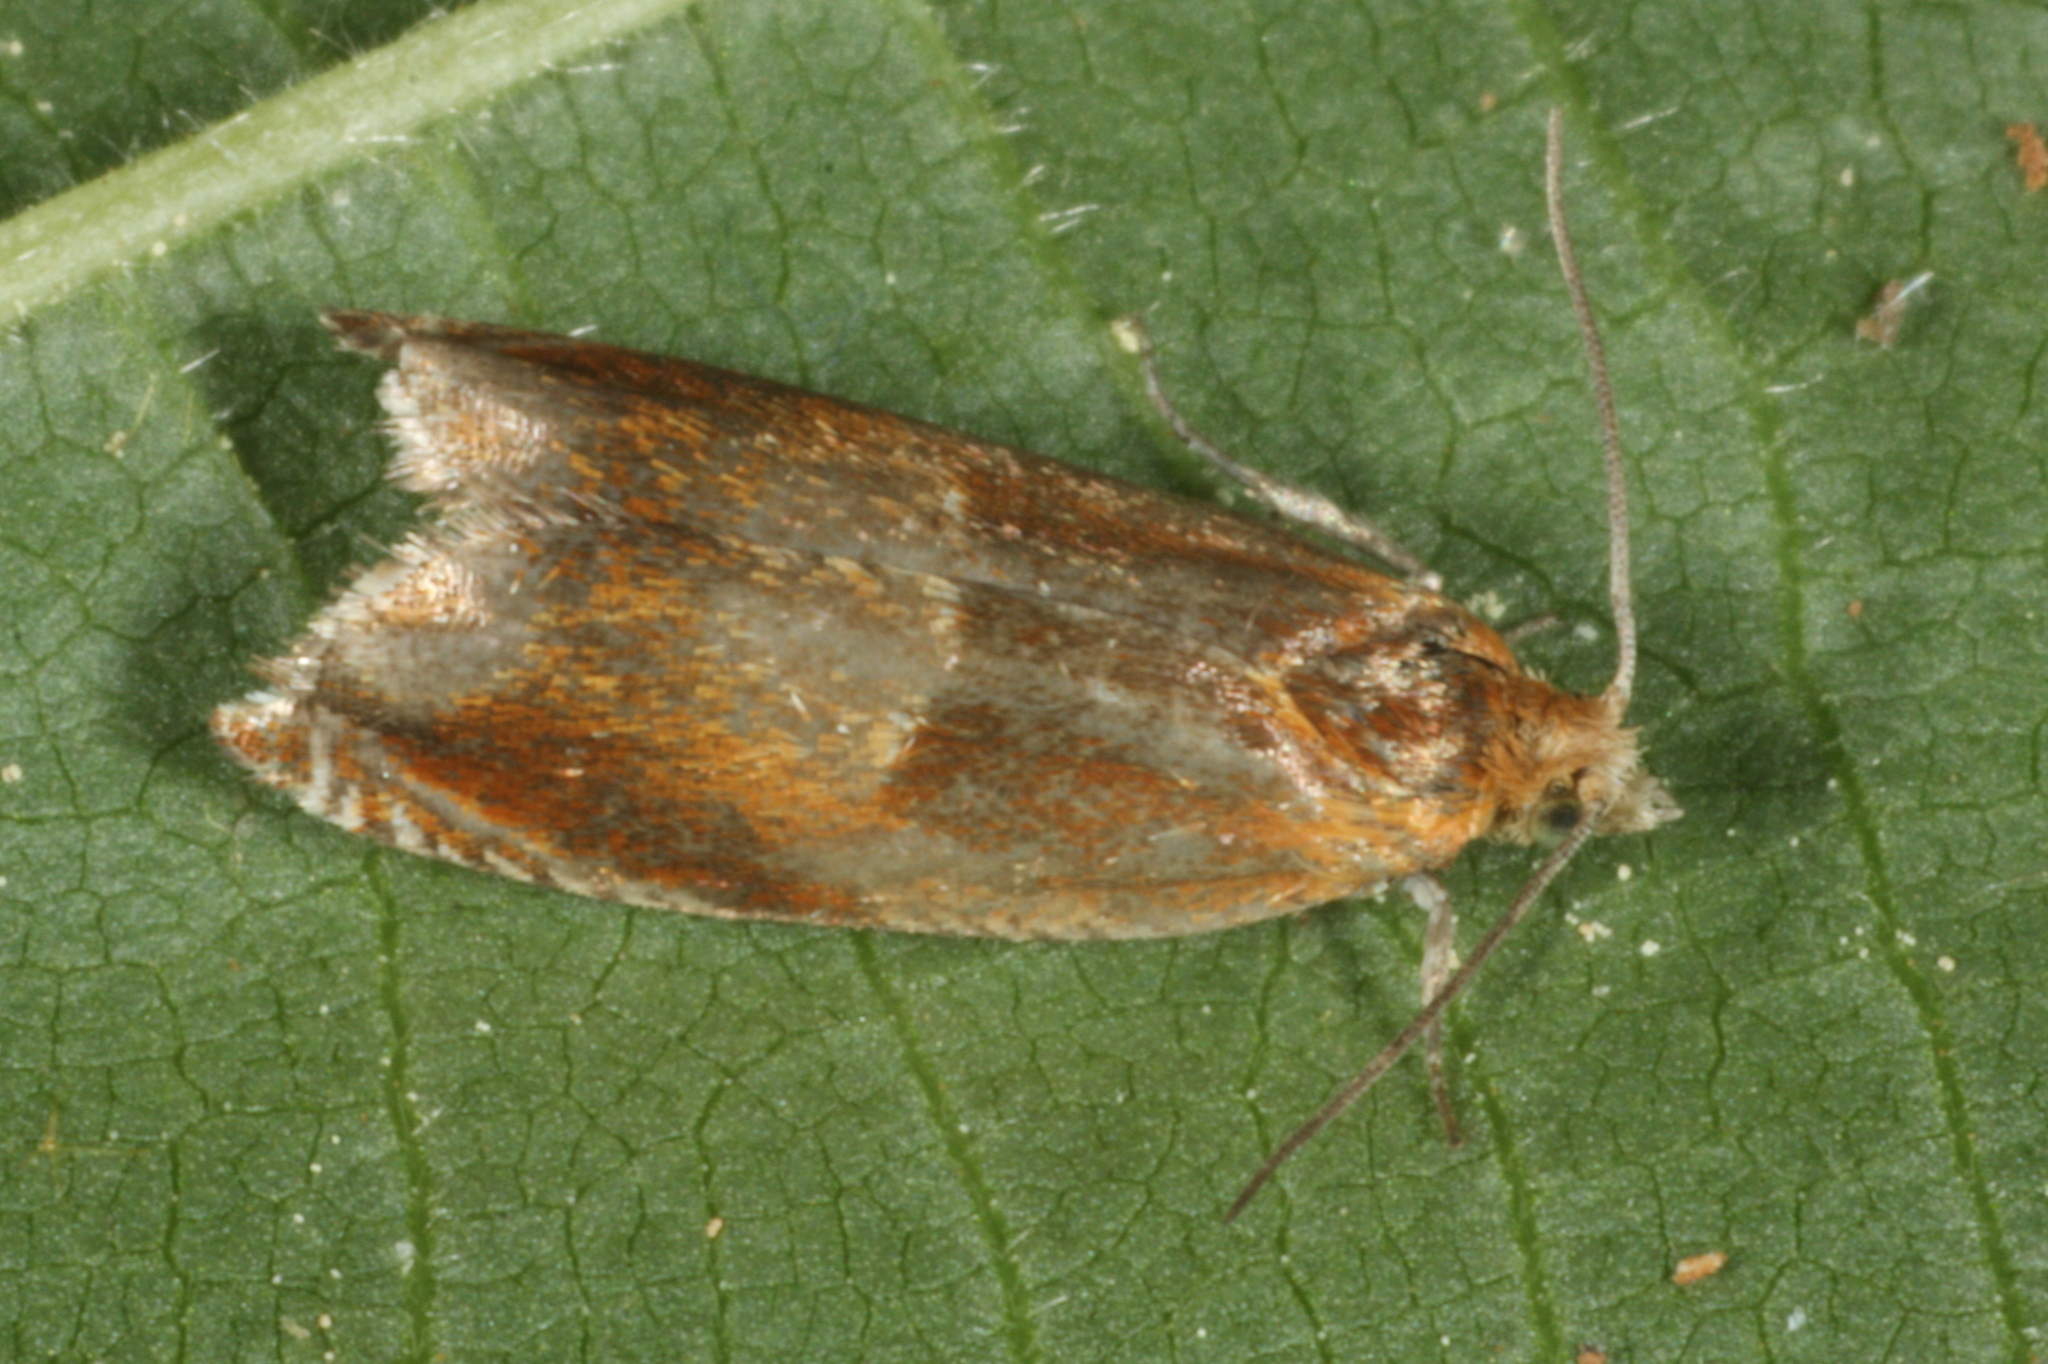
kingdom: Animalia
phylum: Arthropoda
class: Insecta
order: Lepidoptera
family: Tortricidae
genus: Ancylis
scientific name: Ancylis mitterbacheriana
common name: Red roller
